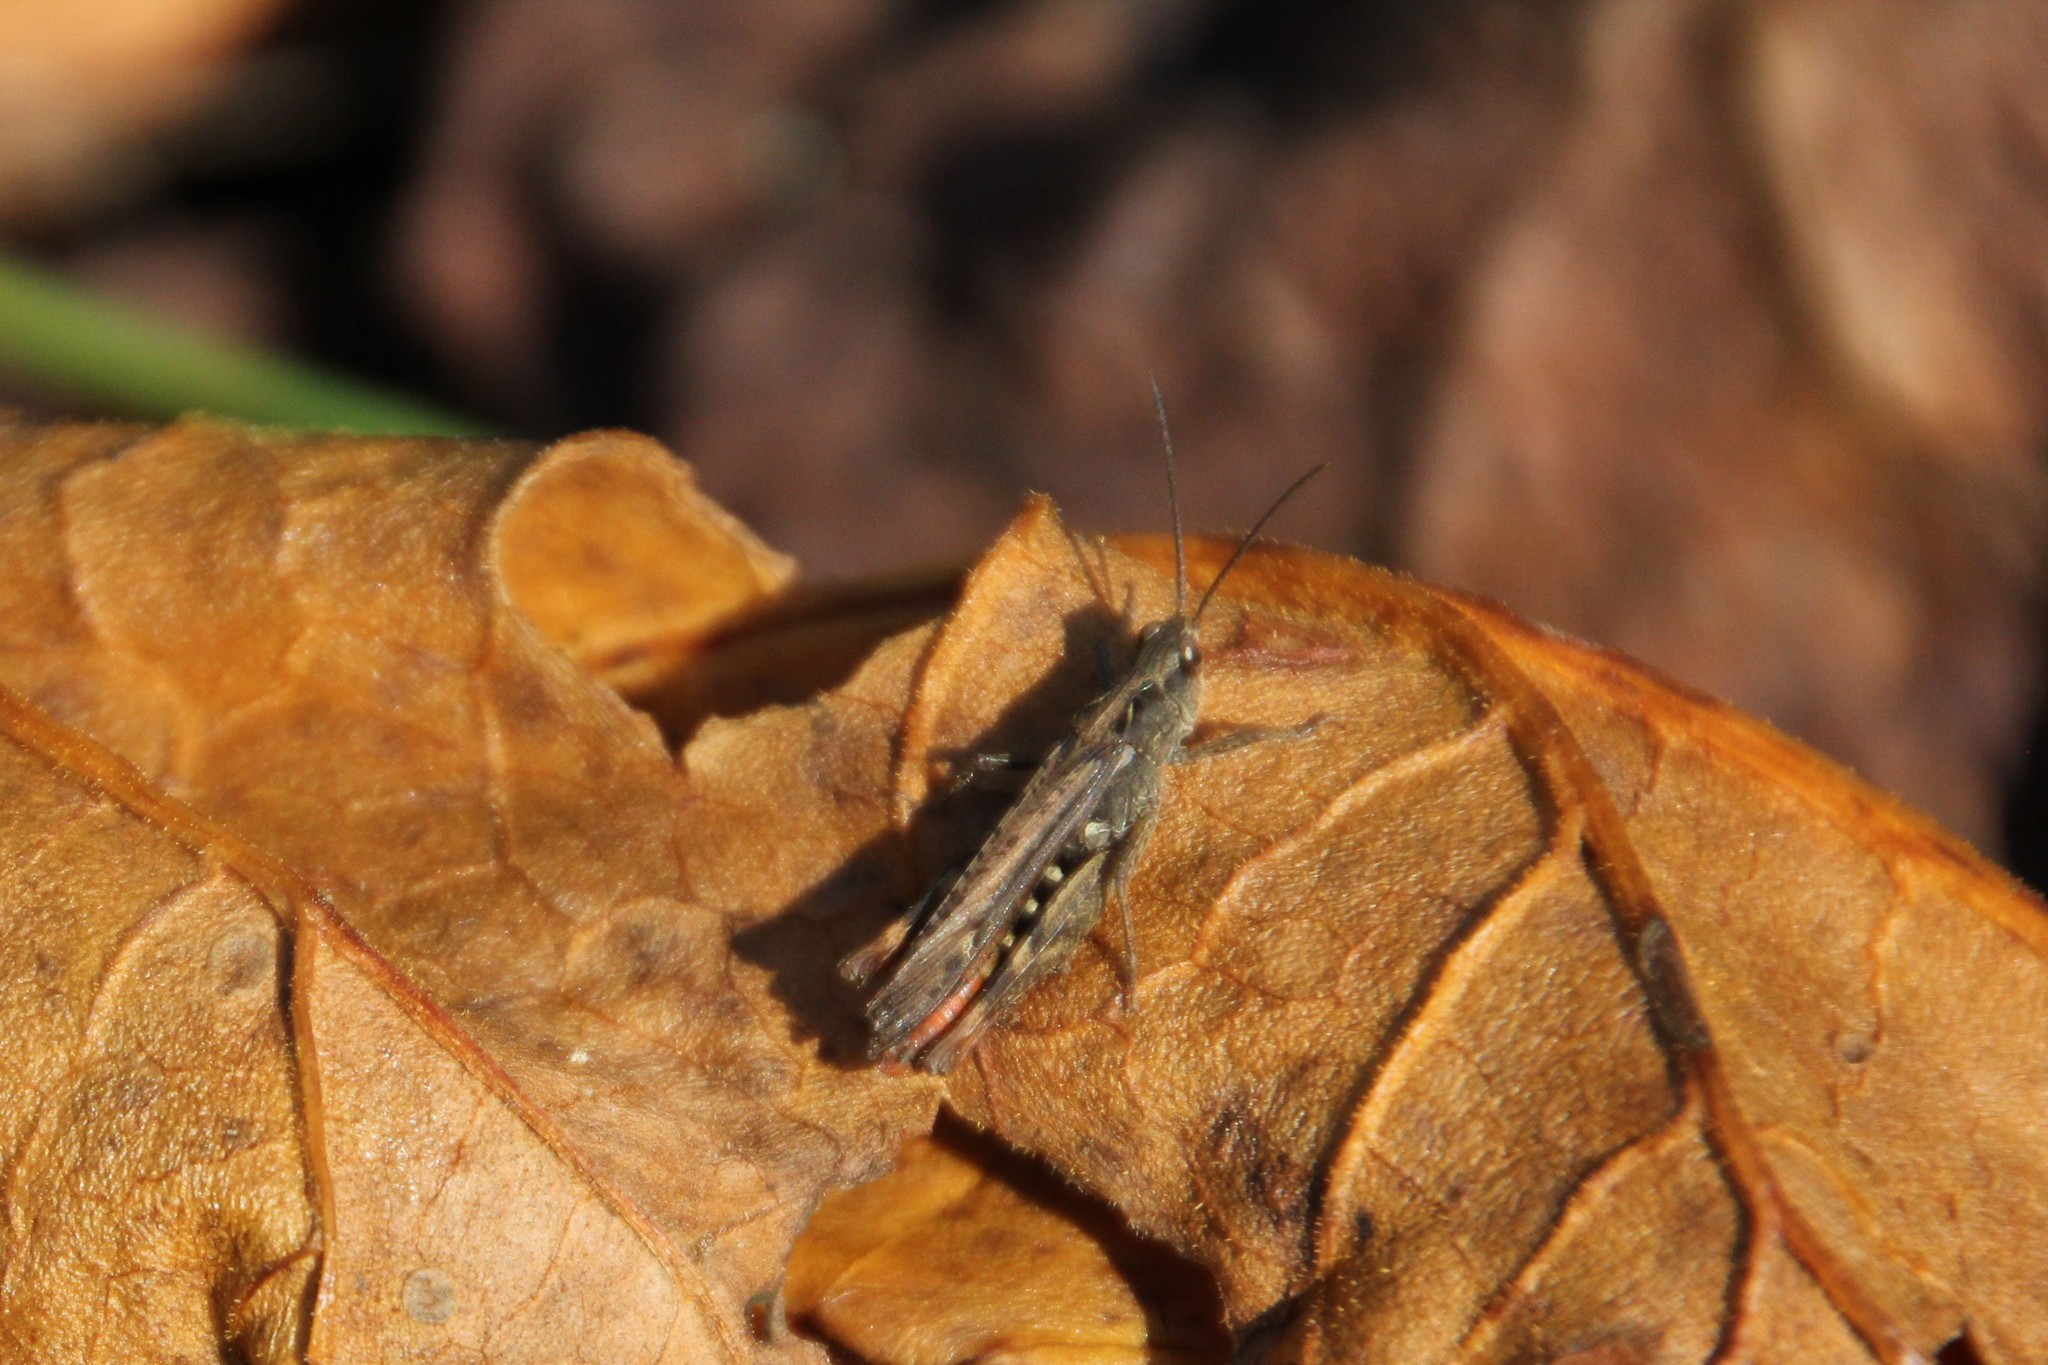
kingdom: Animalia
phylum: Arthropoda
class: Insecta
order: Orthoptera
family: Acrididae
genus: Chorthippus
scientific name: Chorthippus brunneus
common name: Field grasshopper
